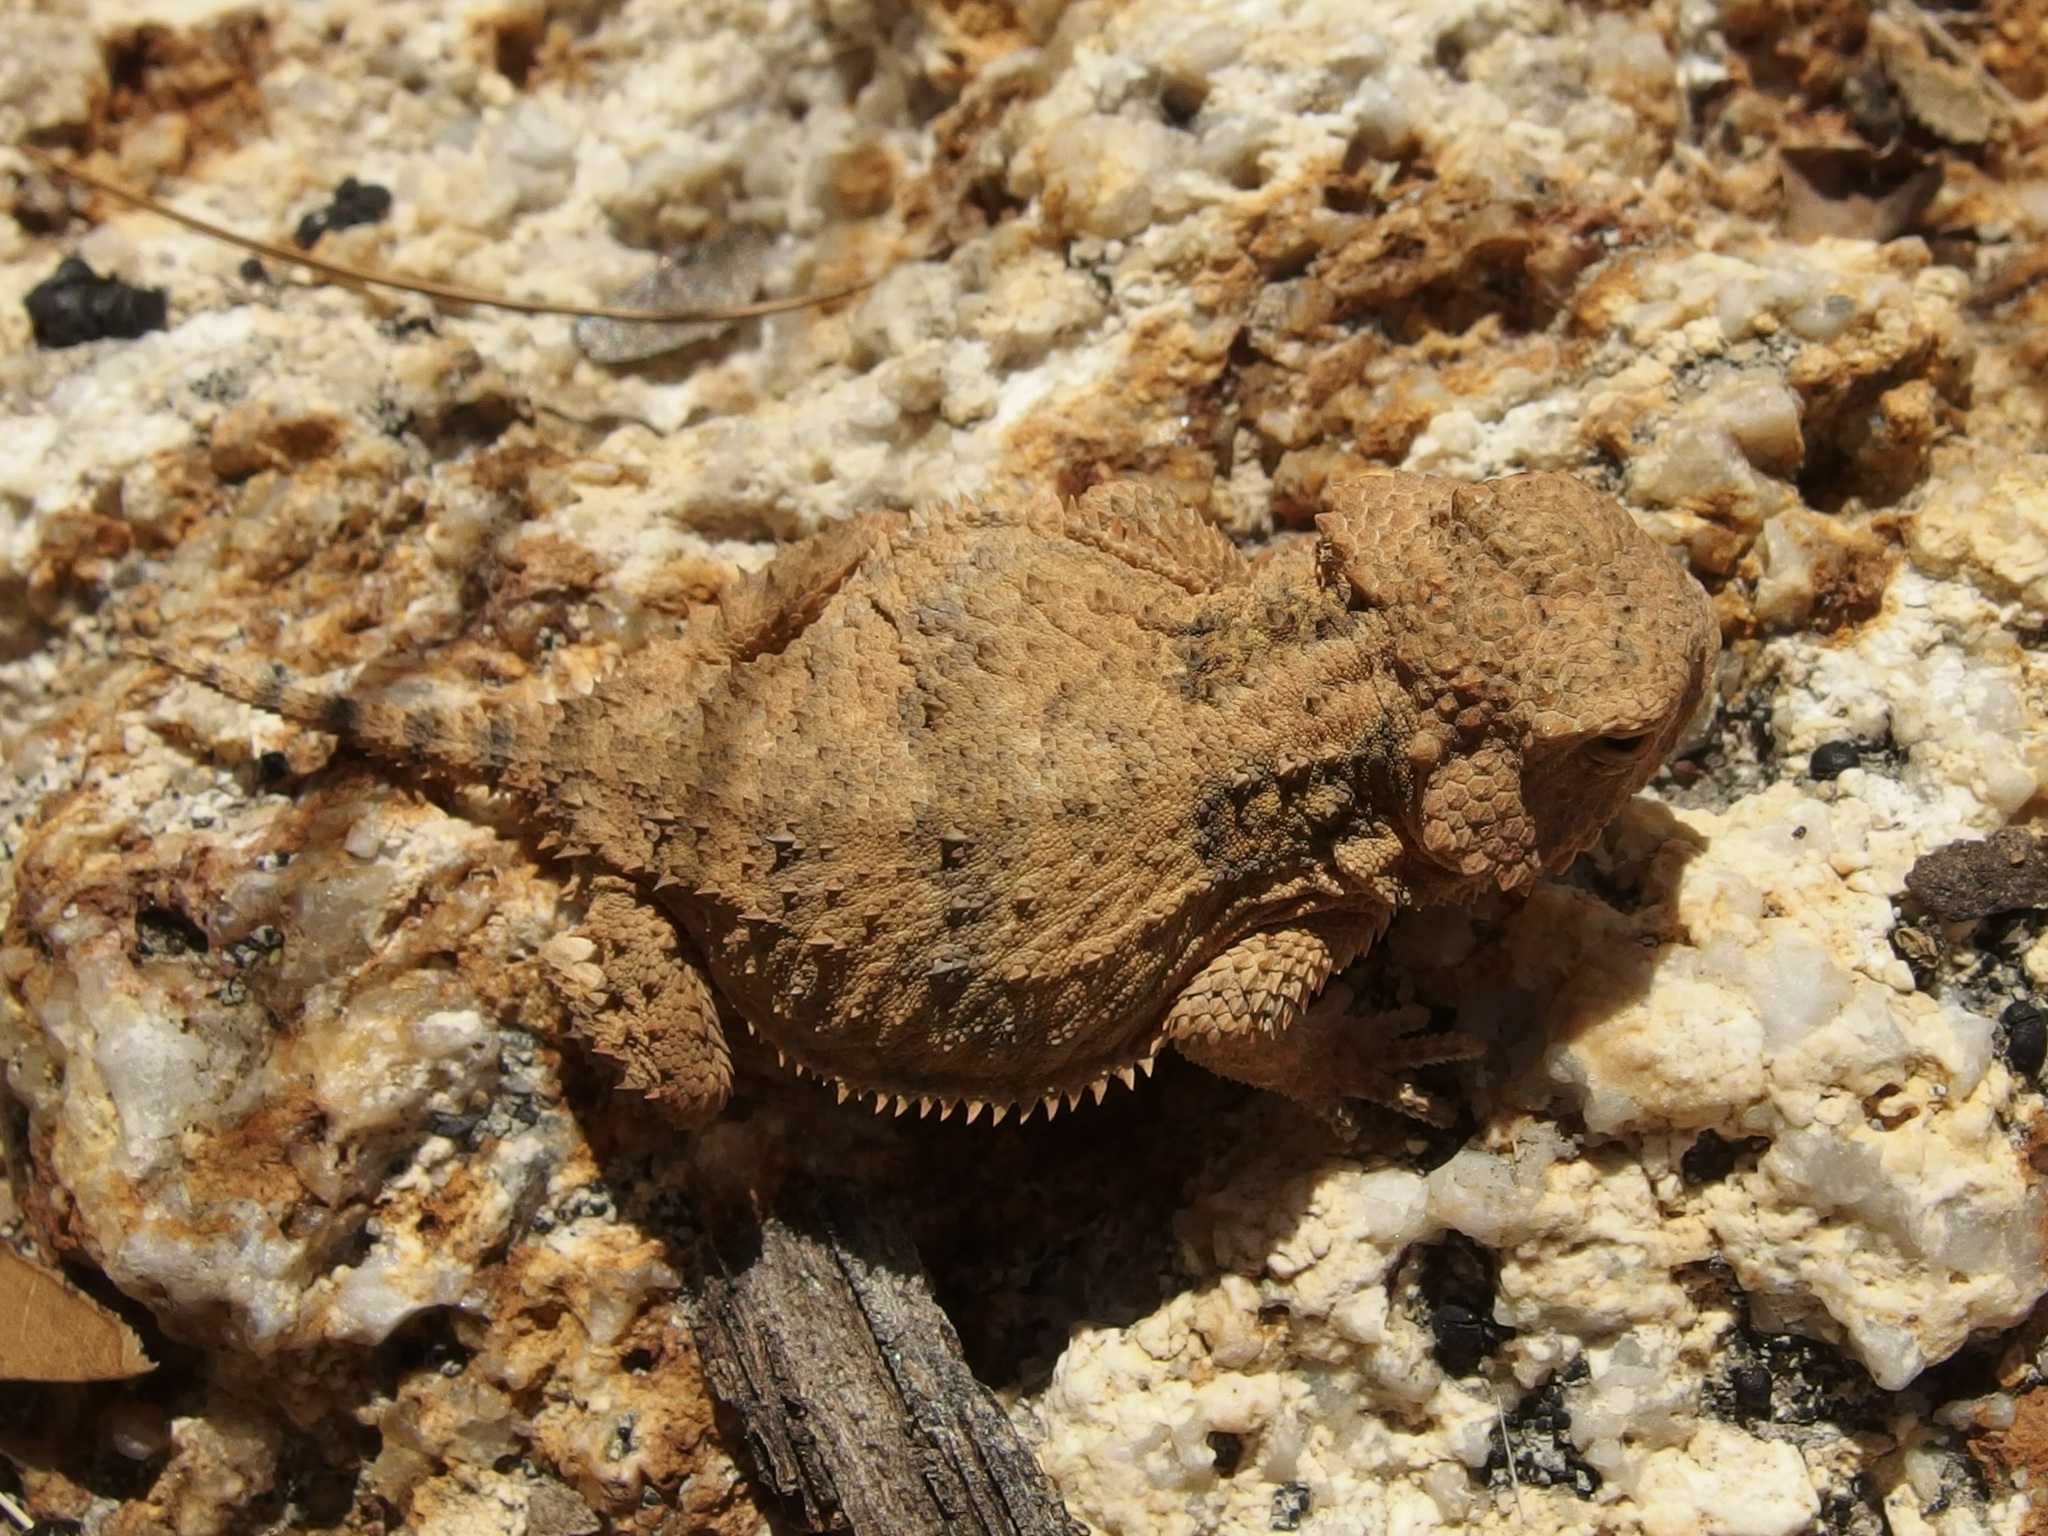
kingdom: Animalia
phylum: Chordata
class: Squamata
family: Phrynosomatidae
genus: Phrynosoma
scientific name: Phrynosoma hernandesi
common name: Greater short-horned lizard
